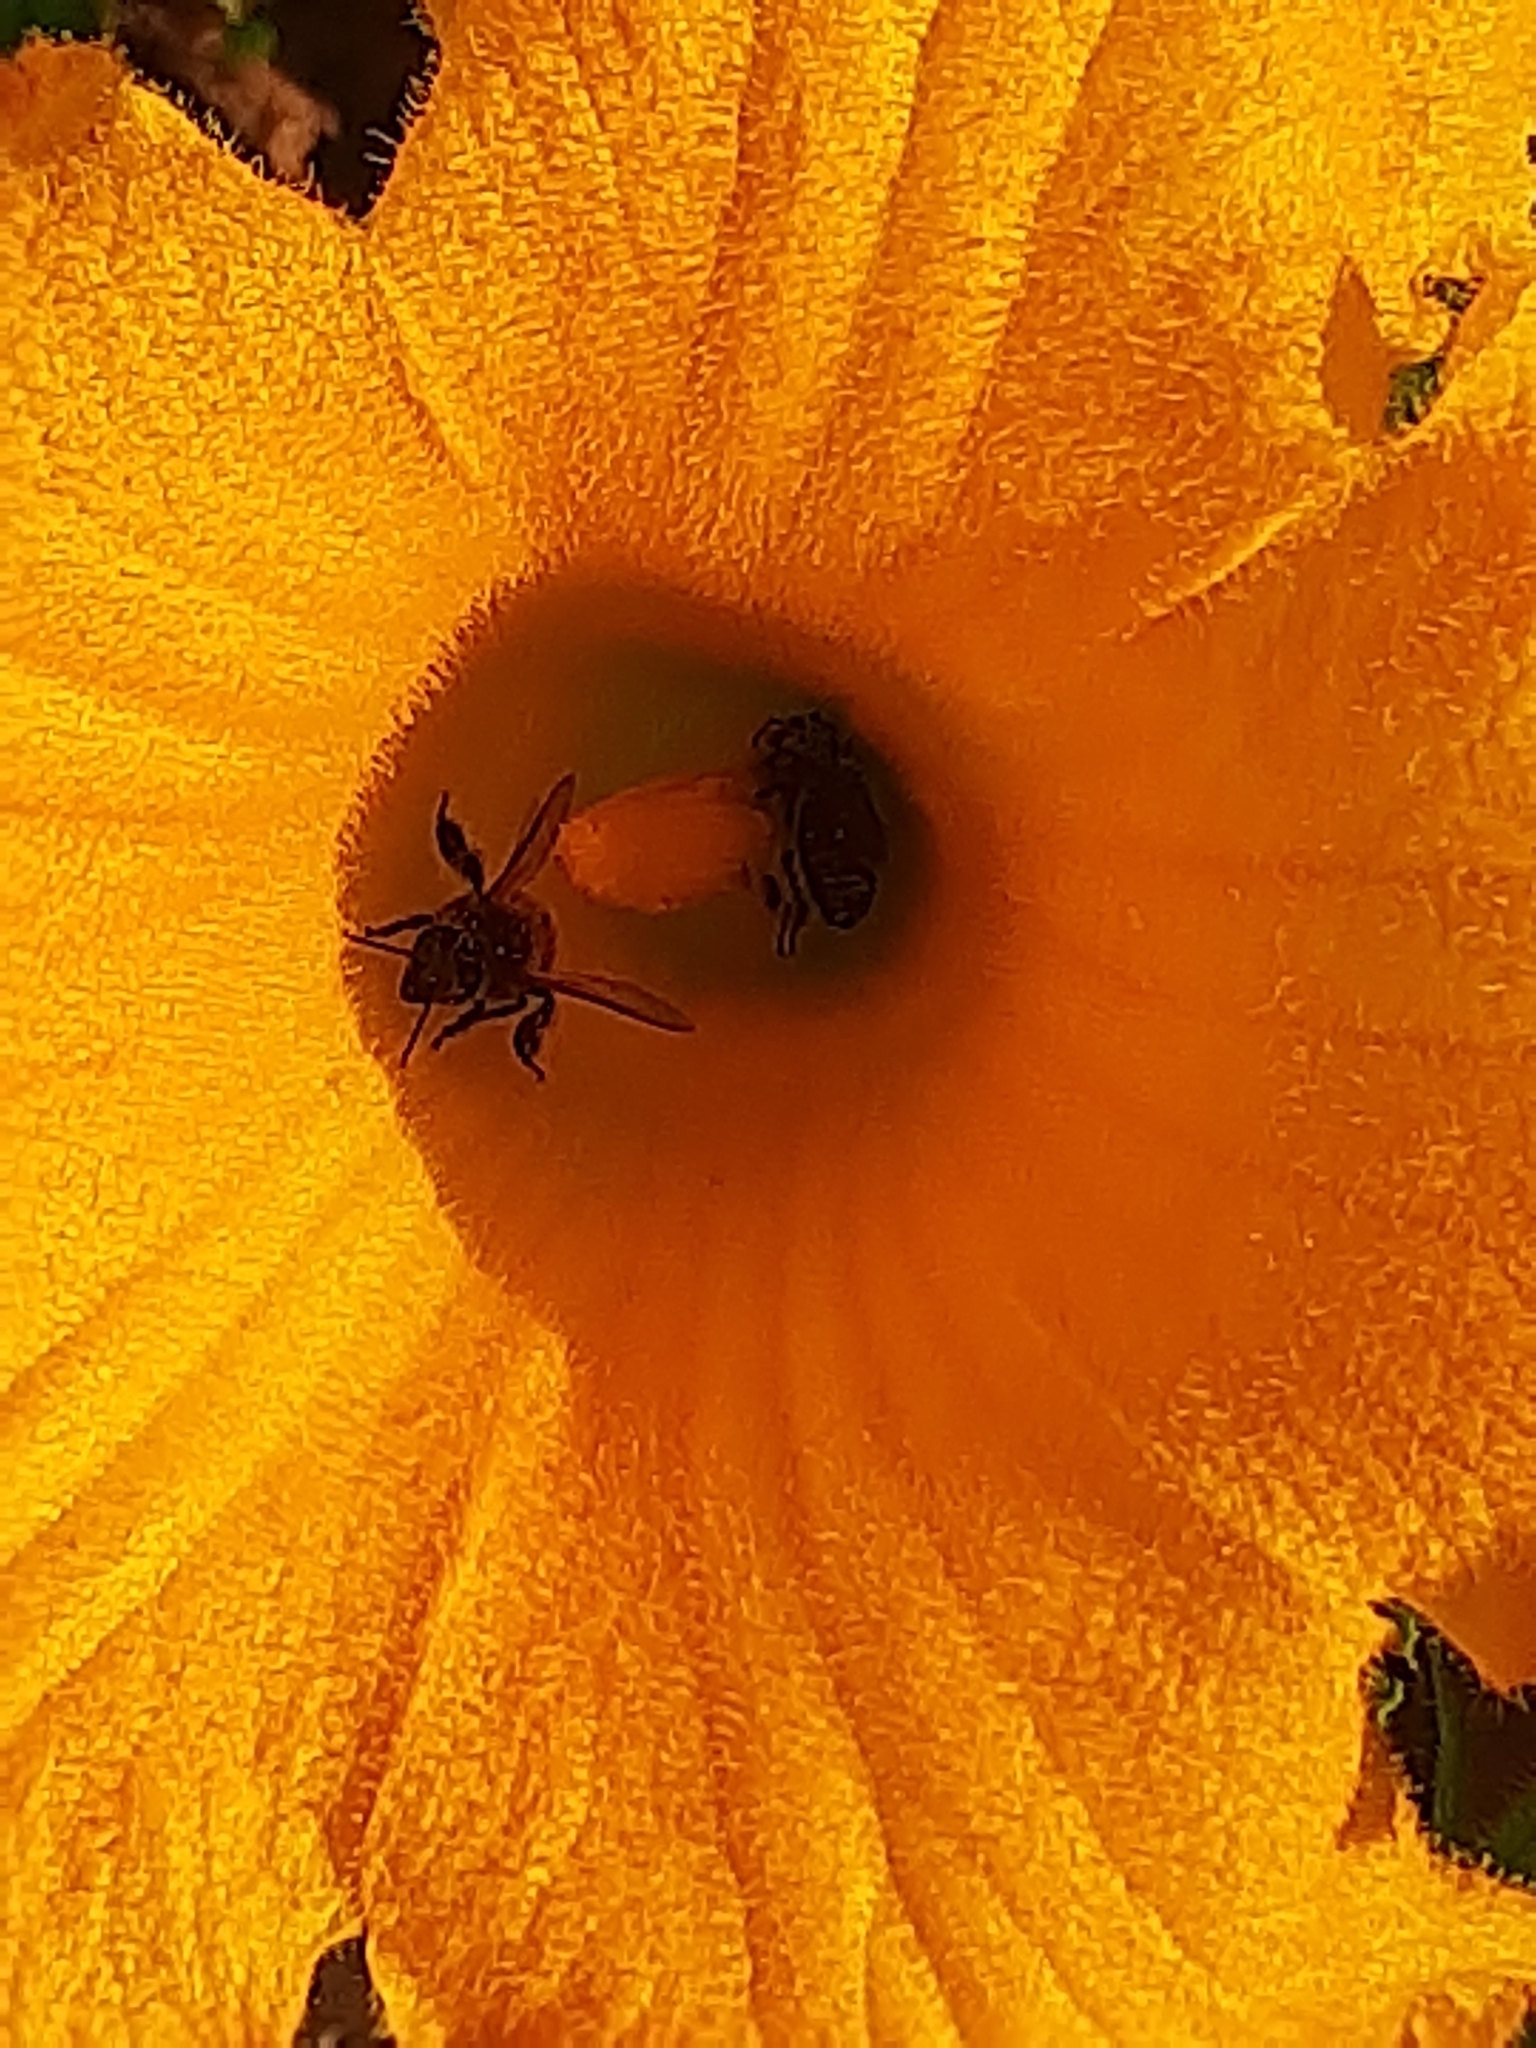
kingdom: Animalia
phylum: Arthropoda
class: Insecta
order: Hymenoptera
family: Apidae
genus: Apis
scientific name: Apis mellifera
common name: Honey bee
